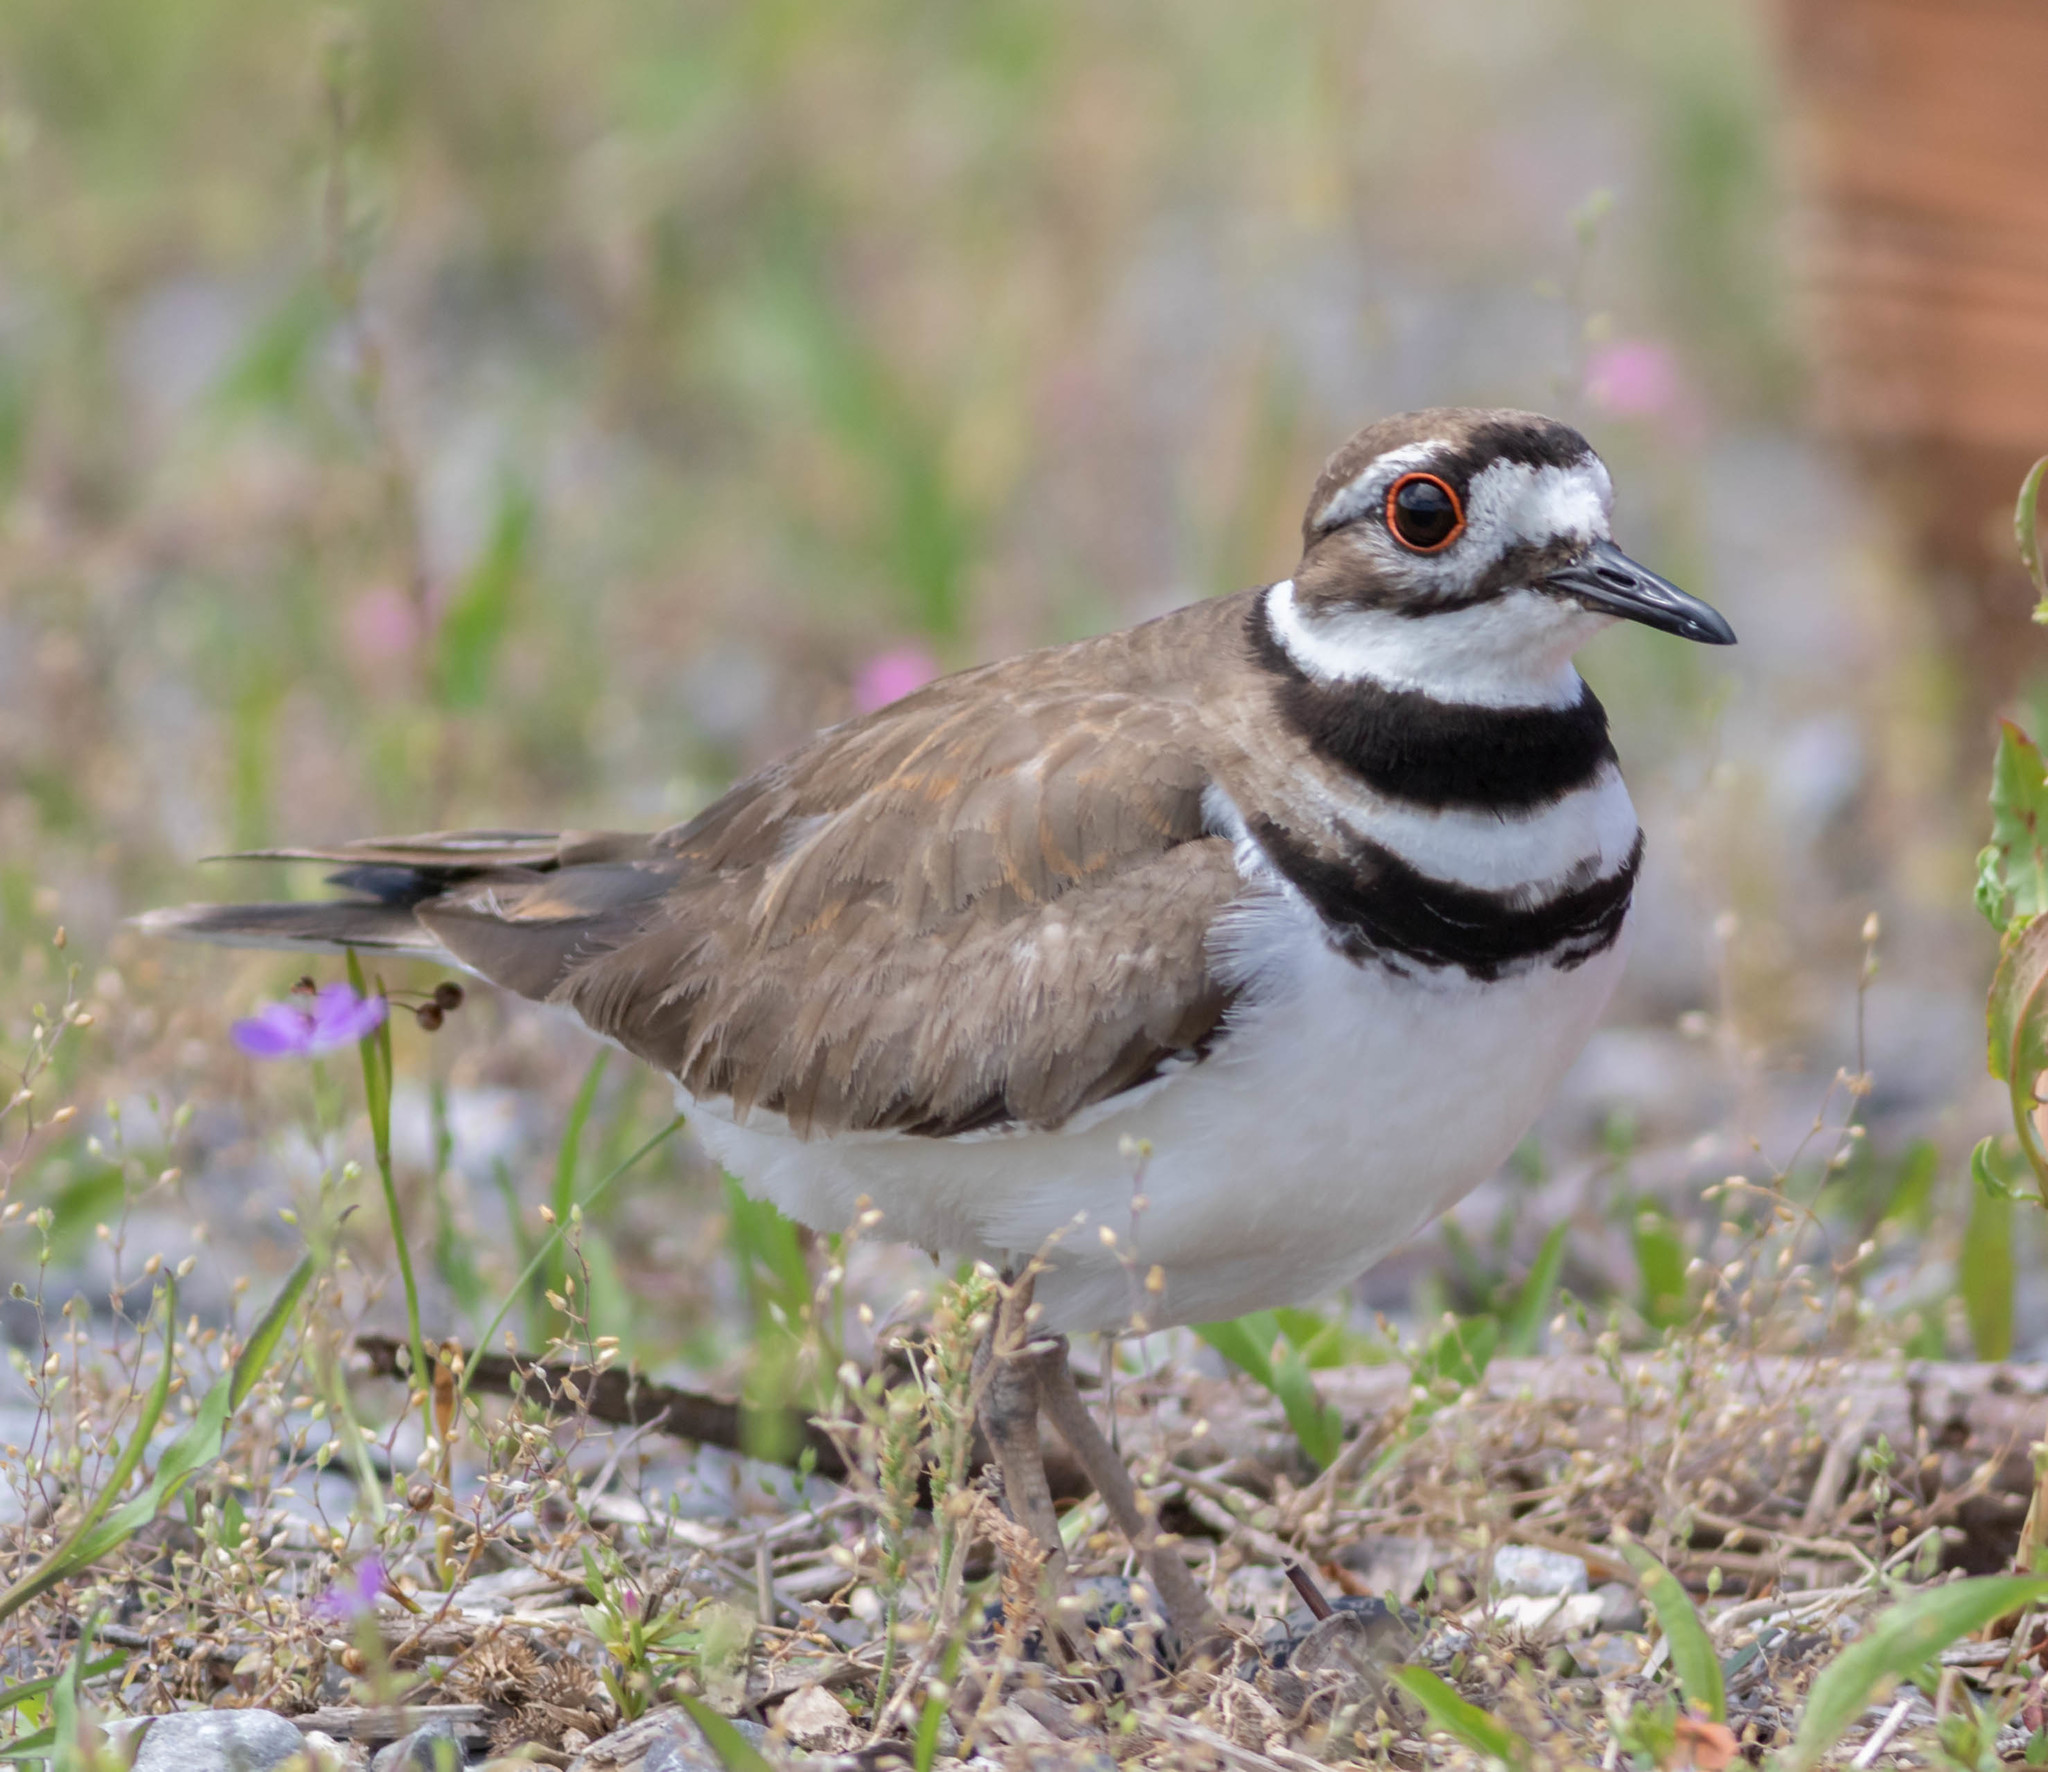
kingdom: Animalia
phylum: Chordata
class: Aves
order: Charadriiformes
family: Charadriidae
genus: Charadrius
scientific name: Charadrius vociferus
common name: Killdeer
